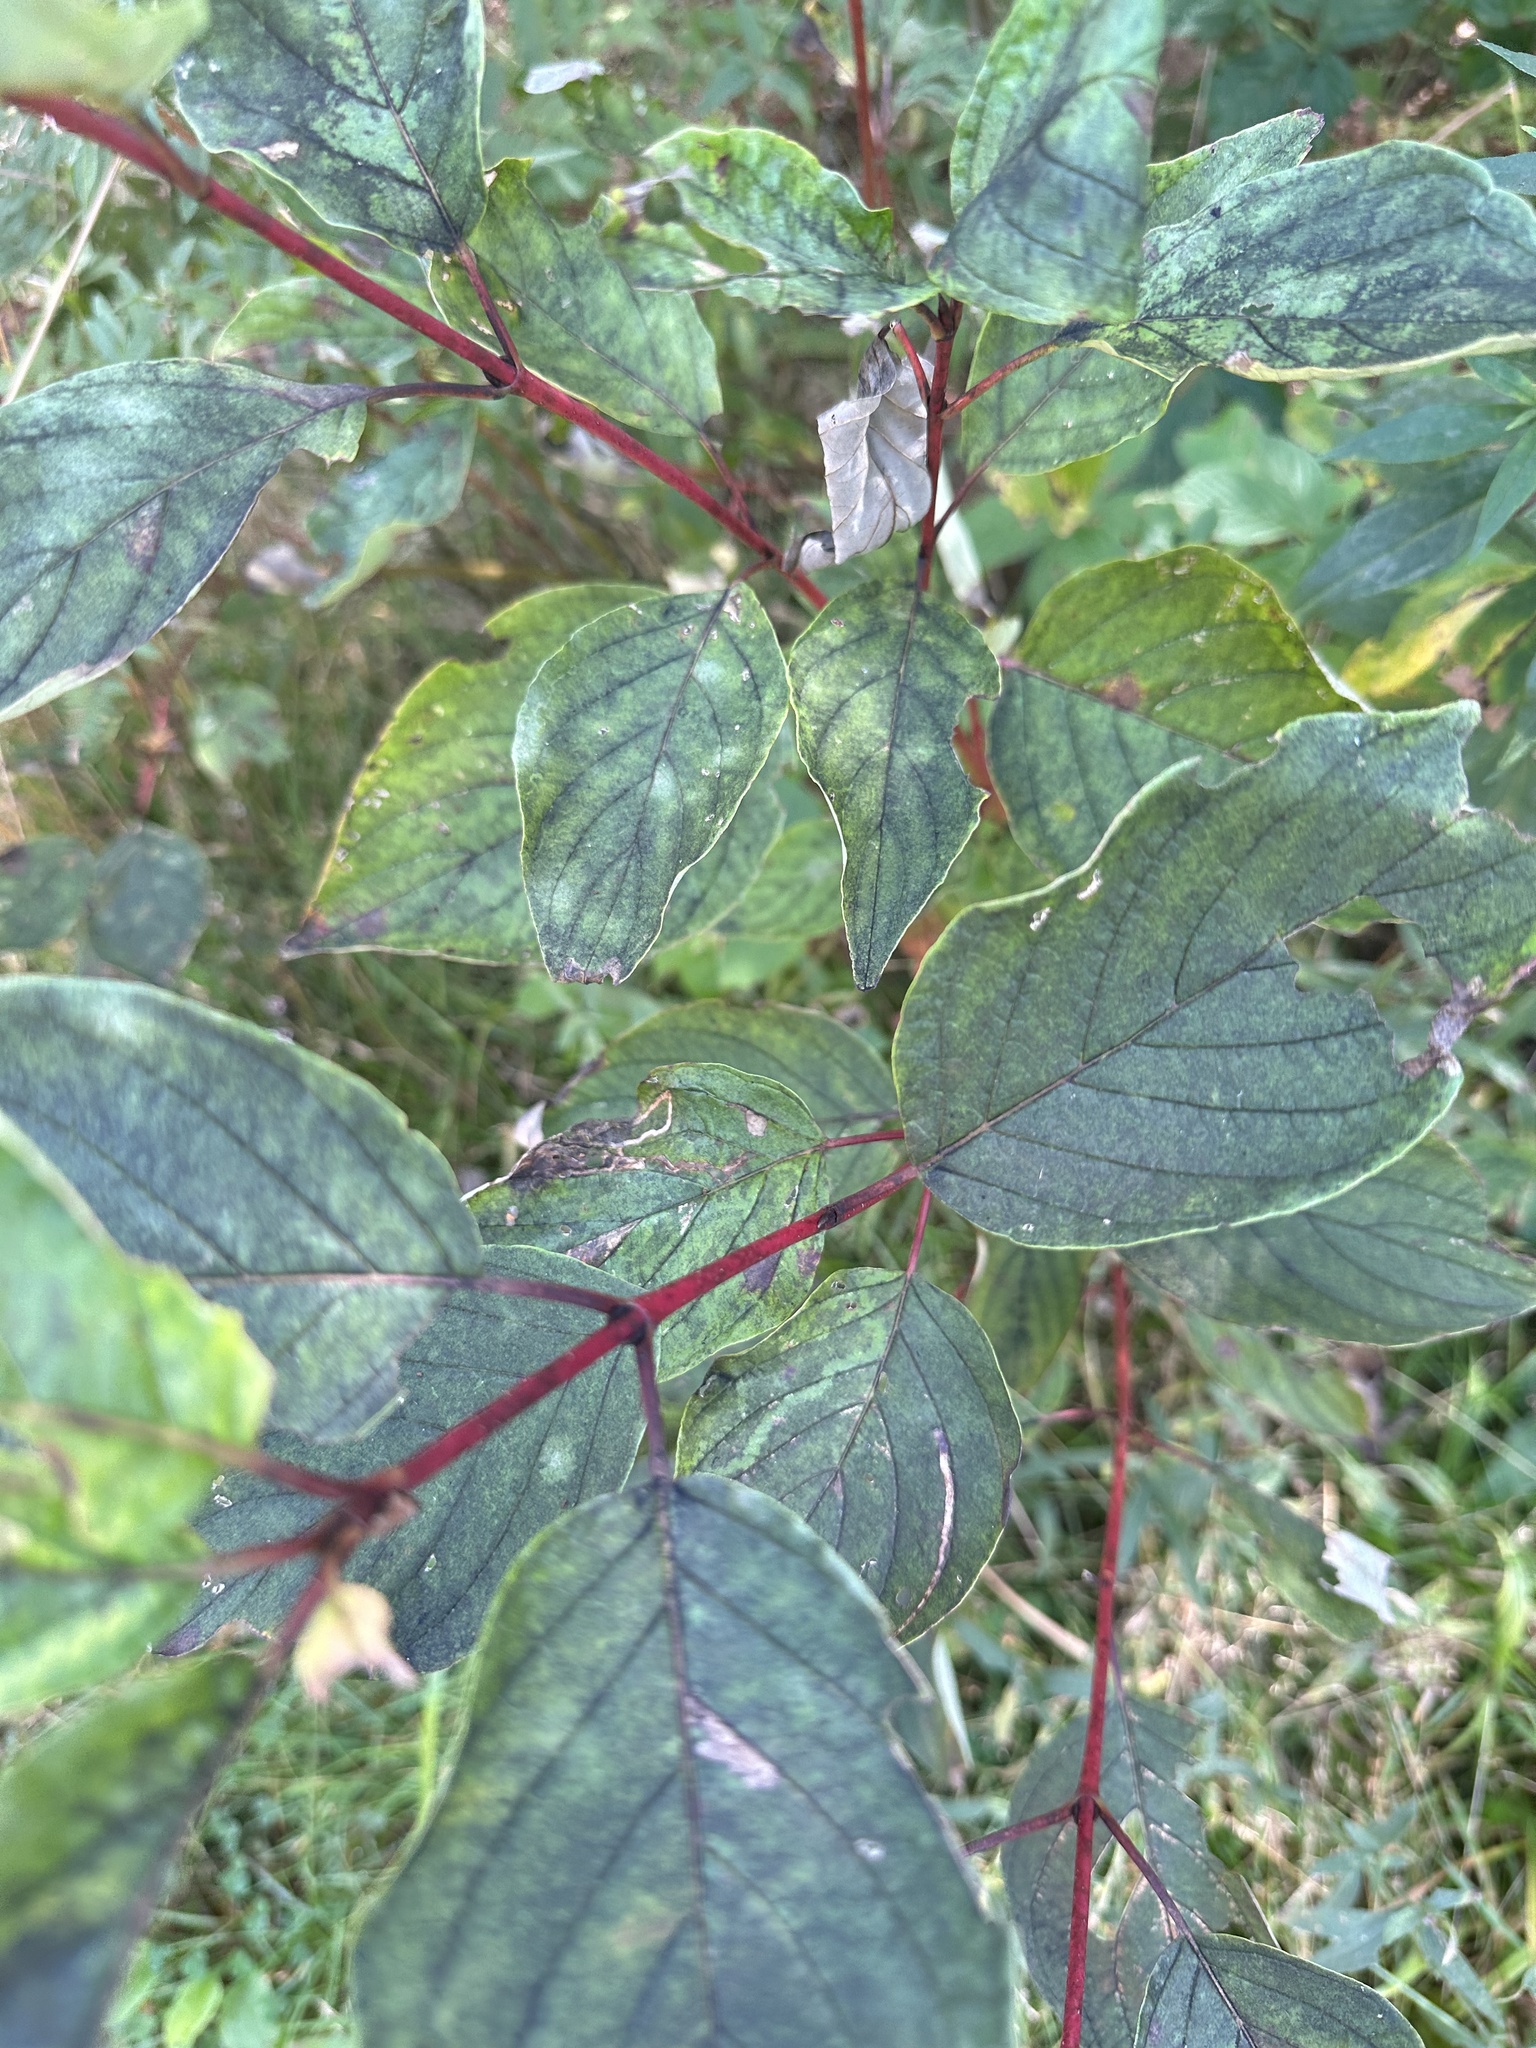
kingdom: Plantae
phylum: Tracheophyta
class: Magnoliopsida
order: Cornales
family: Cornaceae
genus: Cornus
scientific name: Cornus sericea
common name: Red-osier dogwood
